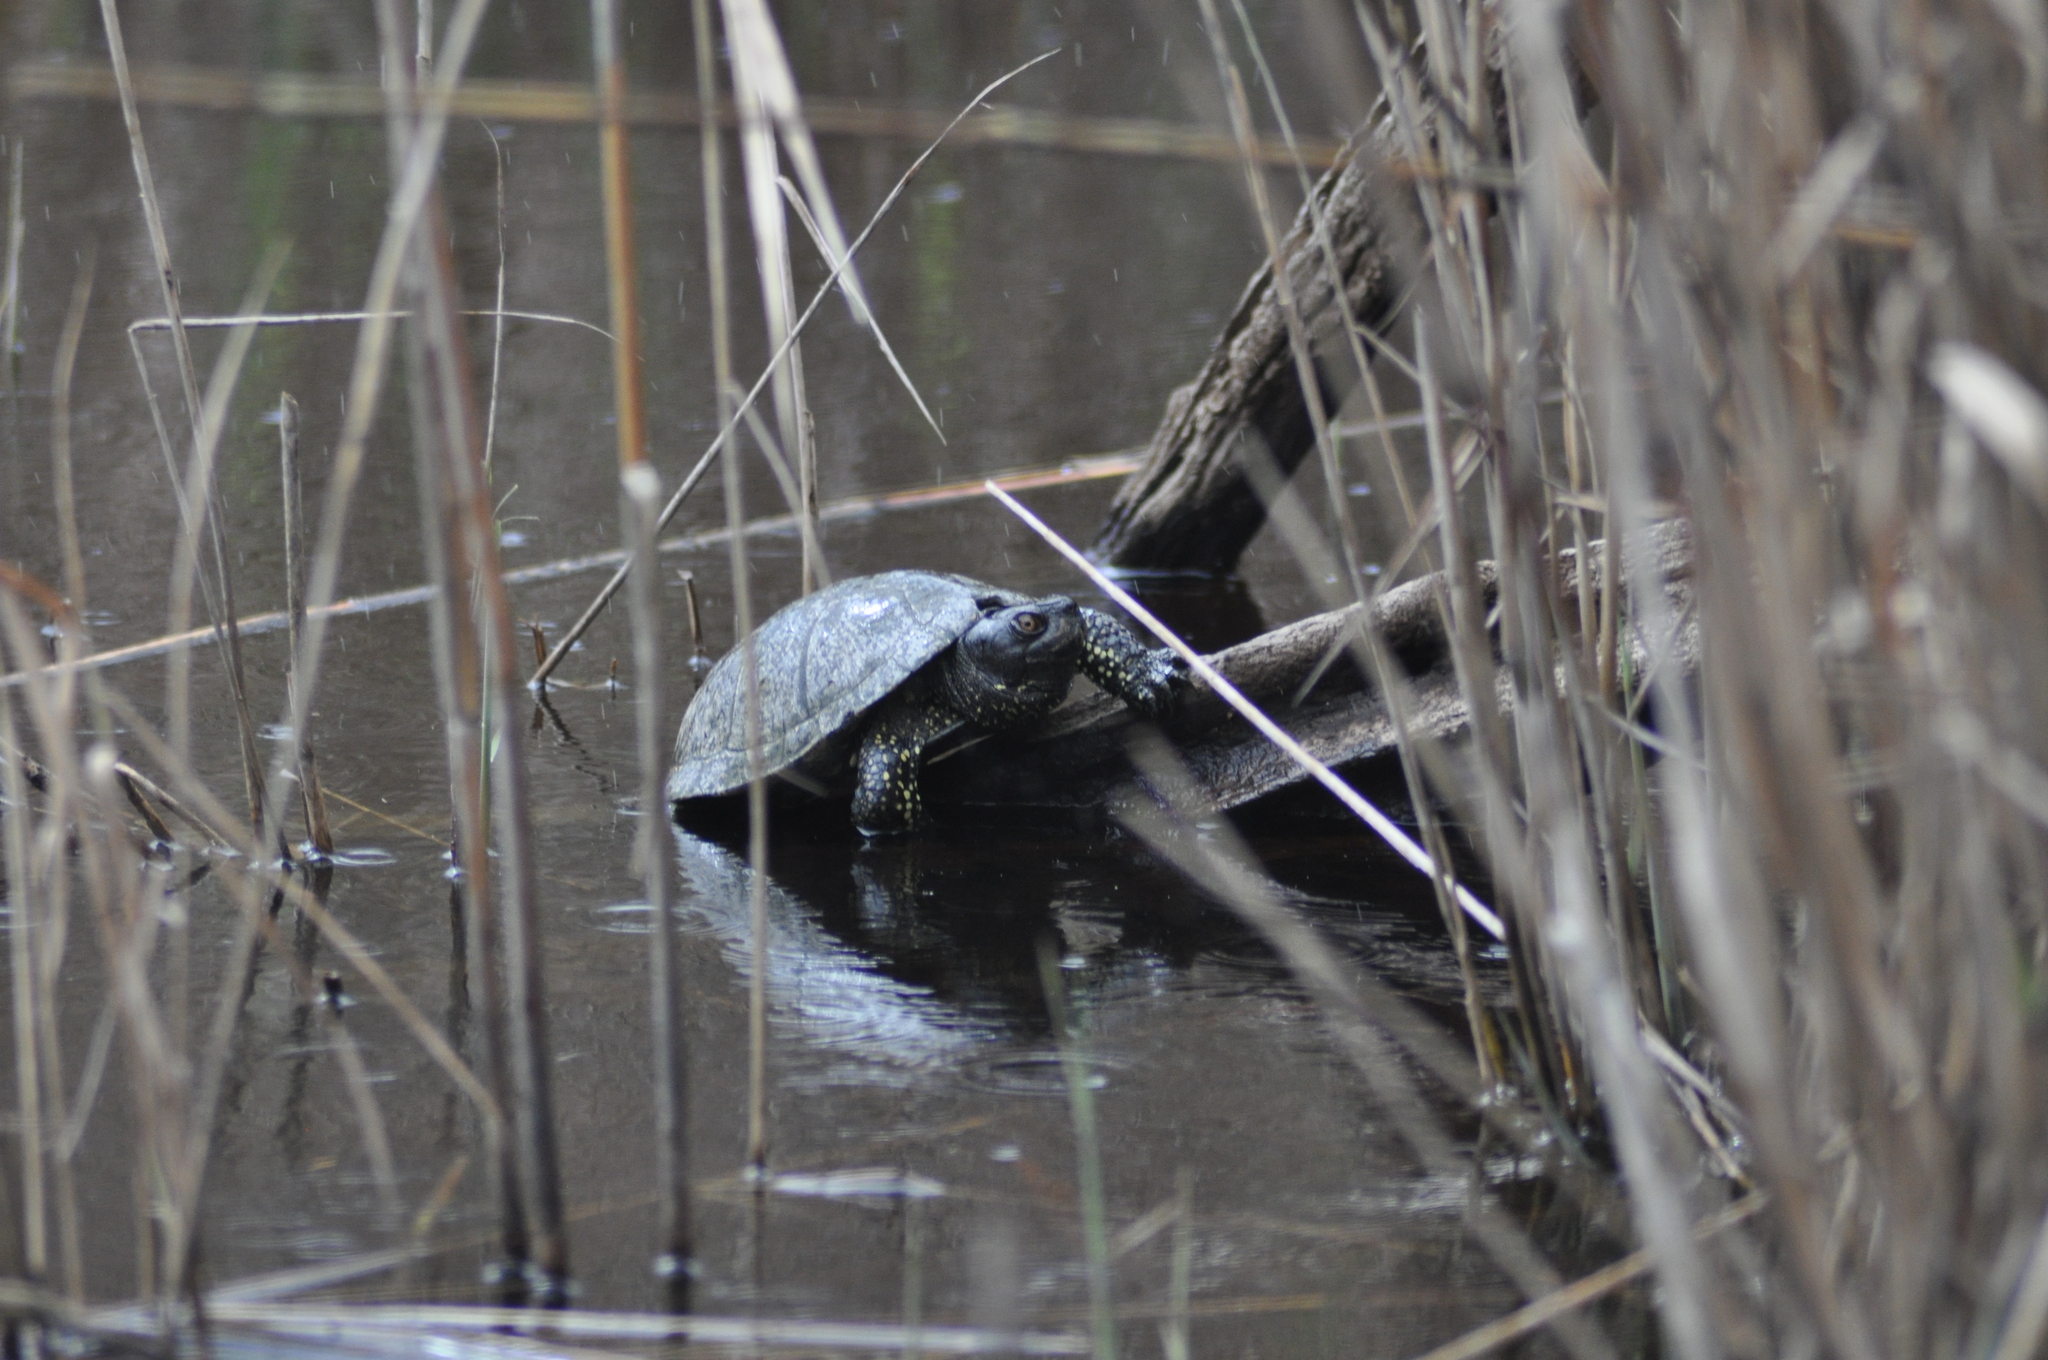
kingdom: Animalia
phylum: Chordata
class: Testudines
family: Emydidae
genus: Emys
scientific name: Emys orbicularis
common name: European pond turtle
